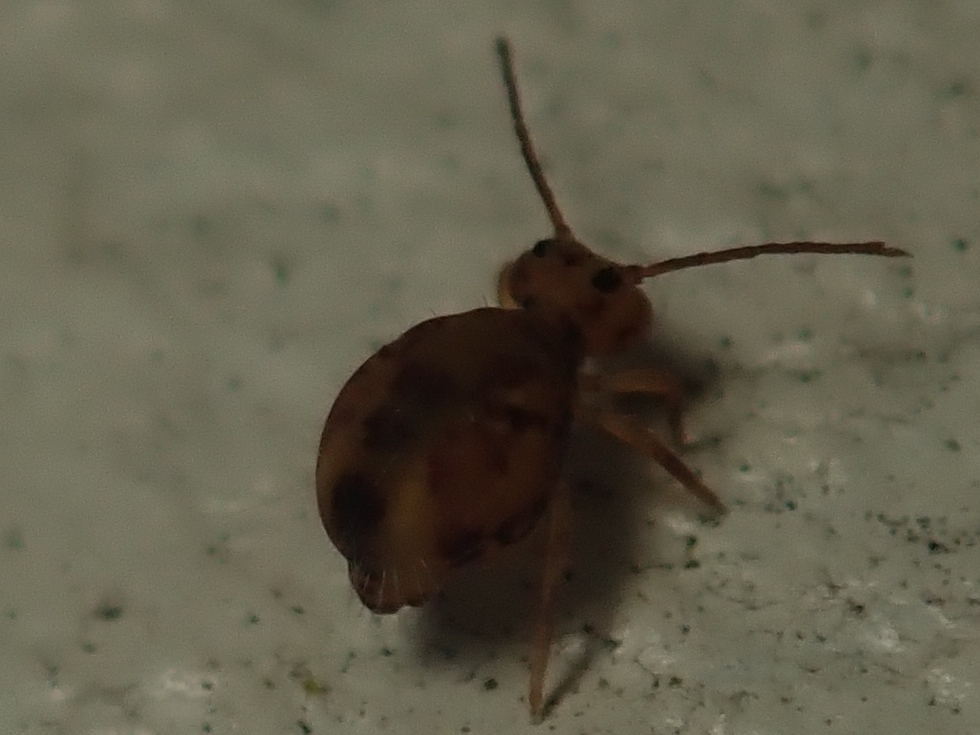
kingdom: Animalia
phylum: Arthropoda
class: Collembola
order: Symphypleona
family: Dicyrtomidae
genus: Dicyrtomina
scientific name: Dicyrtomina ornata
